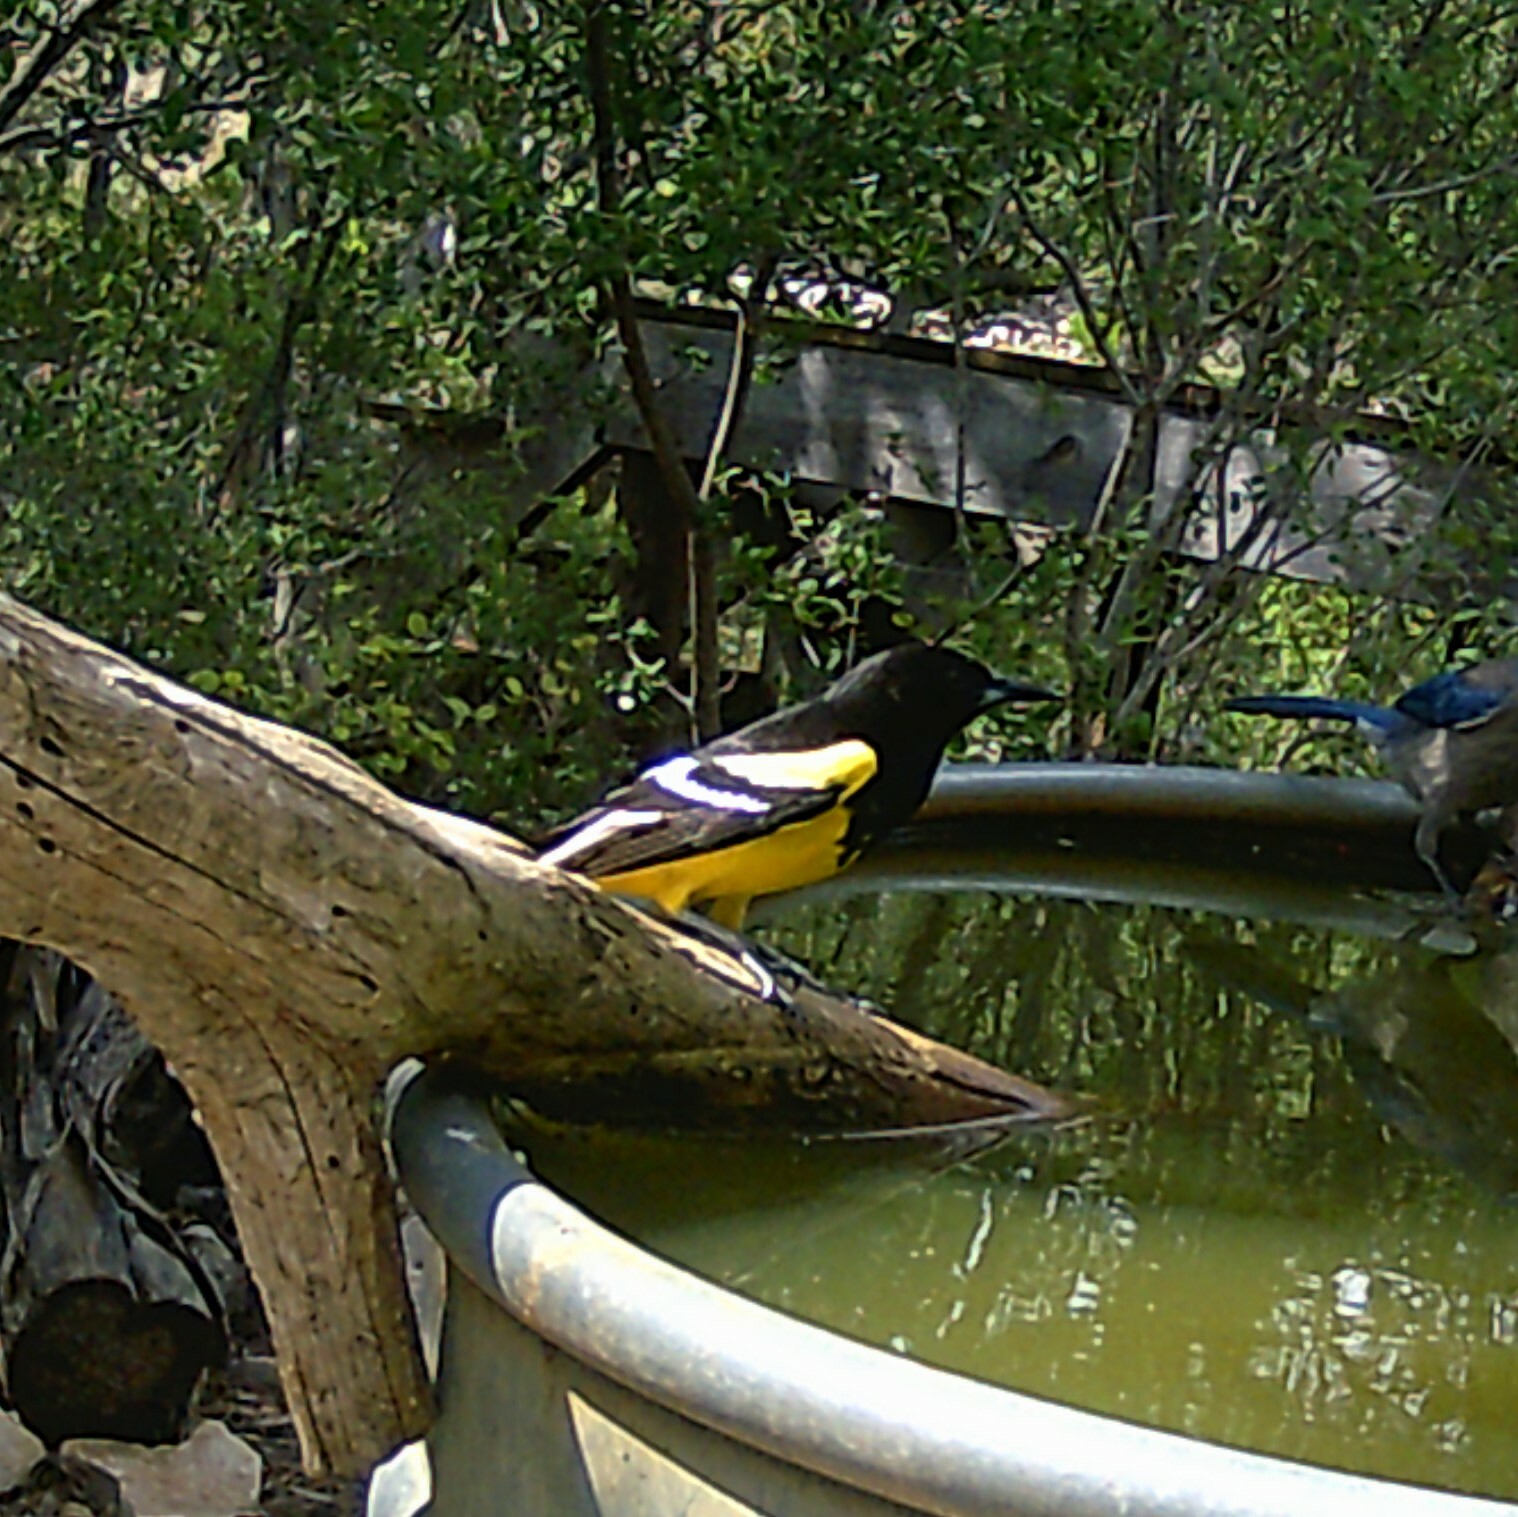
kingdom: Animalia
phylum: Chordata
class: Aves
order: Passeriformes
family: Icteridae
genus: Icterus
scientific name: Icterus parisorum
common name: Scott's oriole
